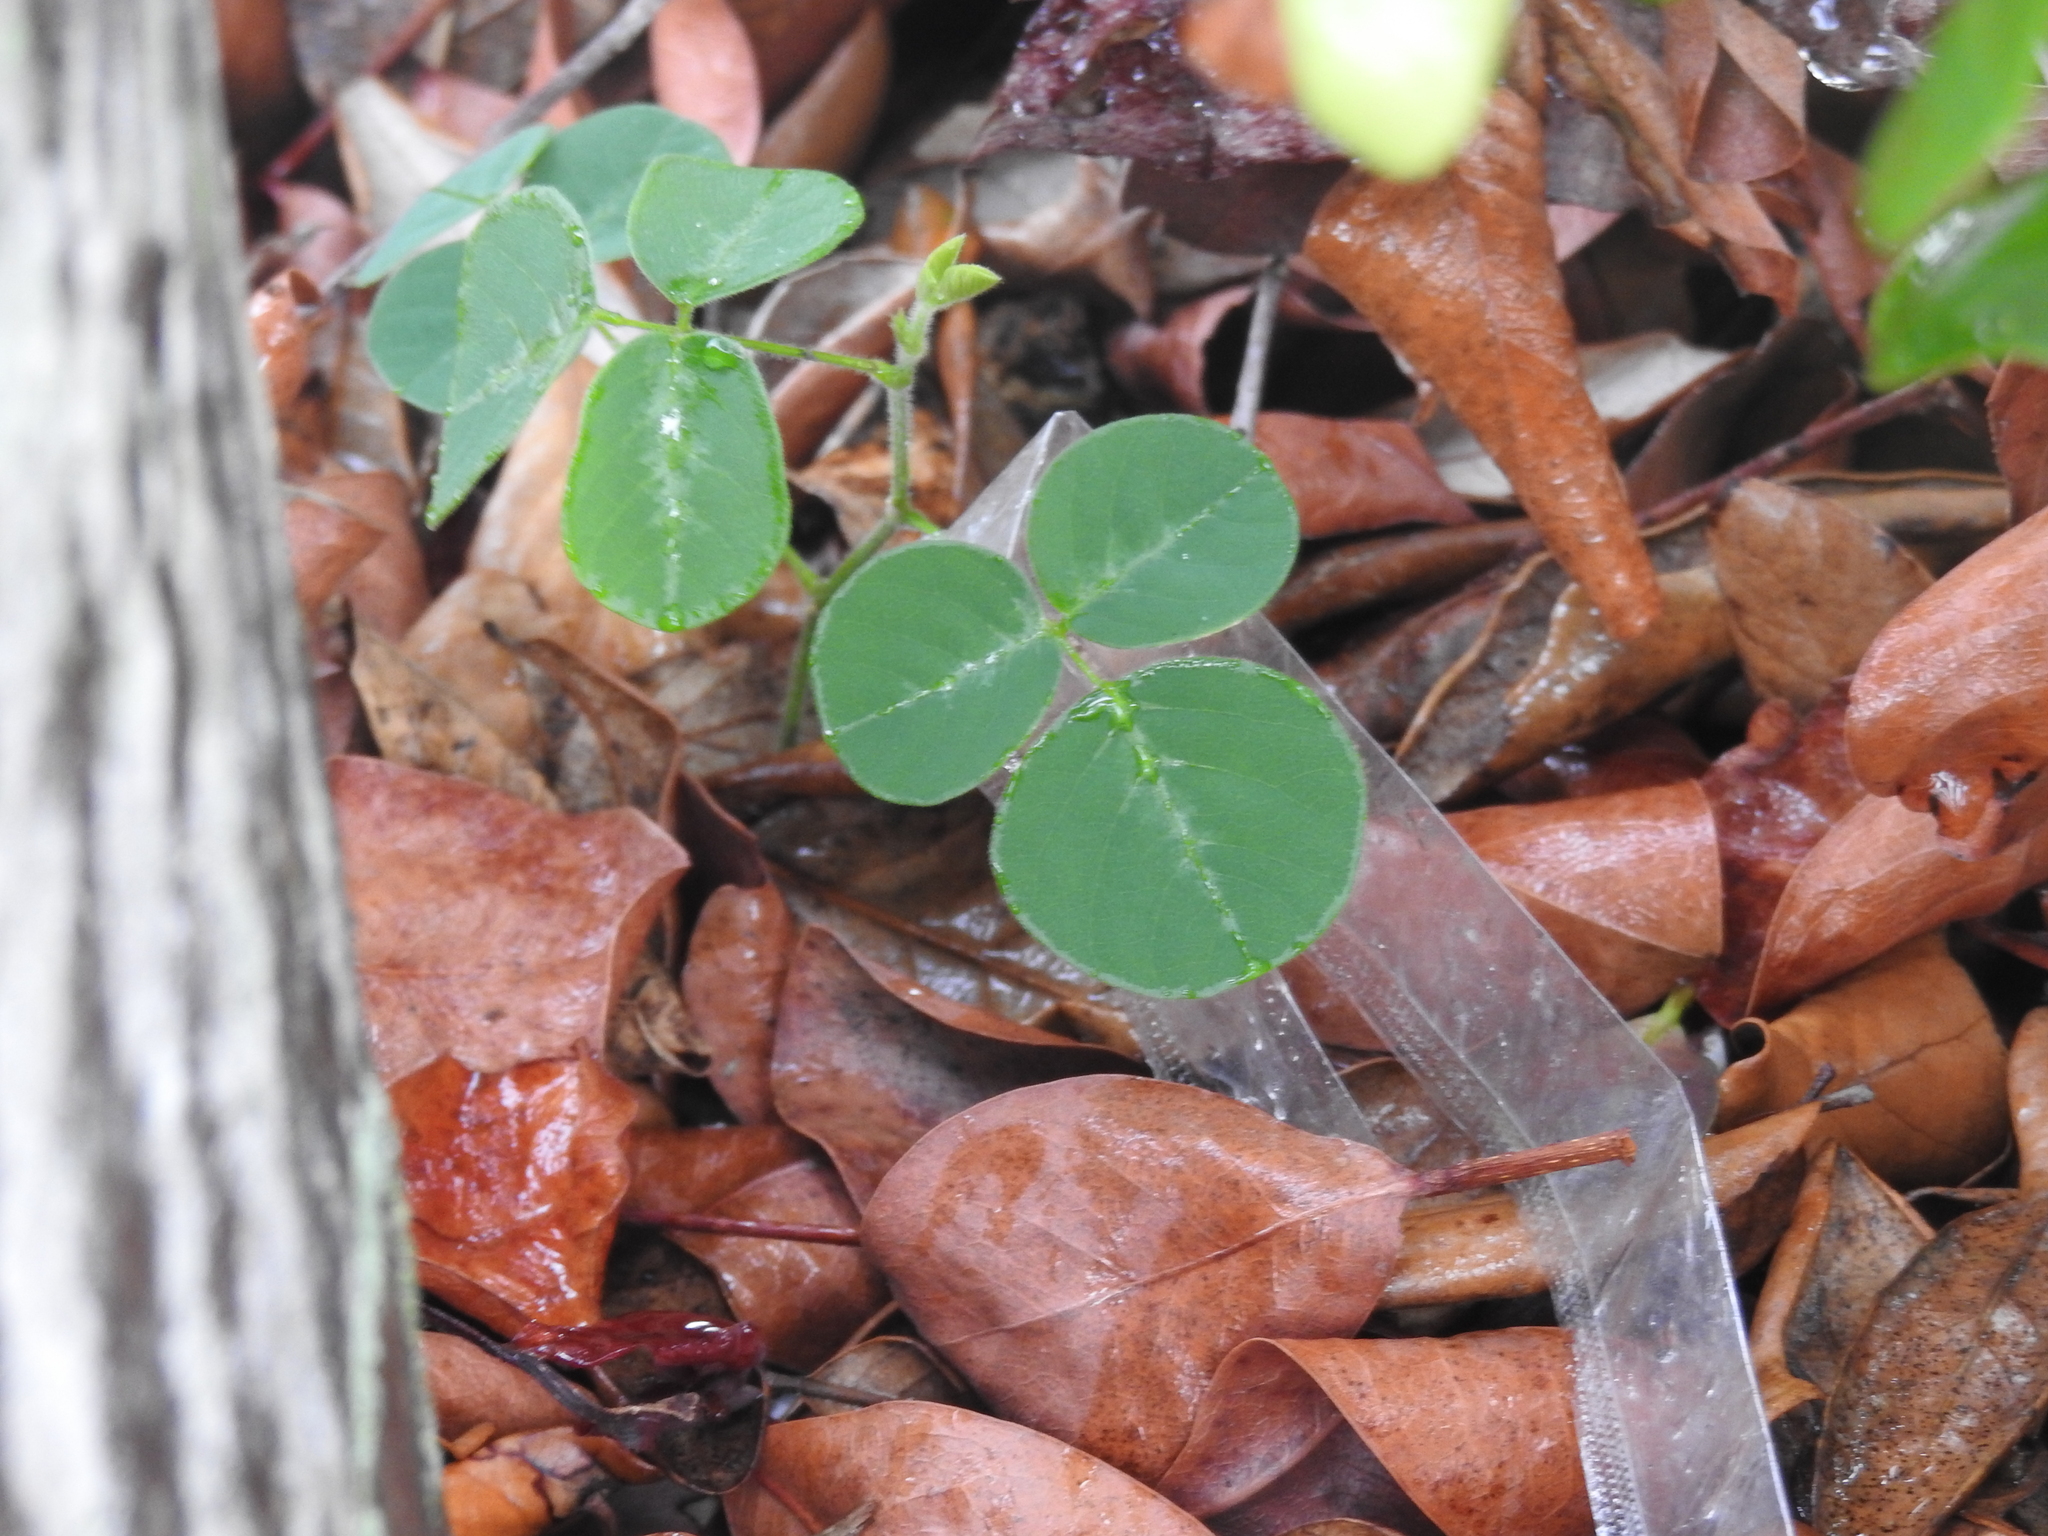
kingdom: Plantae
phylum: Tracheophyta
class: Magnoliopsida
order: Fabales
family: Fabaceae
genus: Desmodium
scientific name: Desmodium incanum
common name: Tickclover
